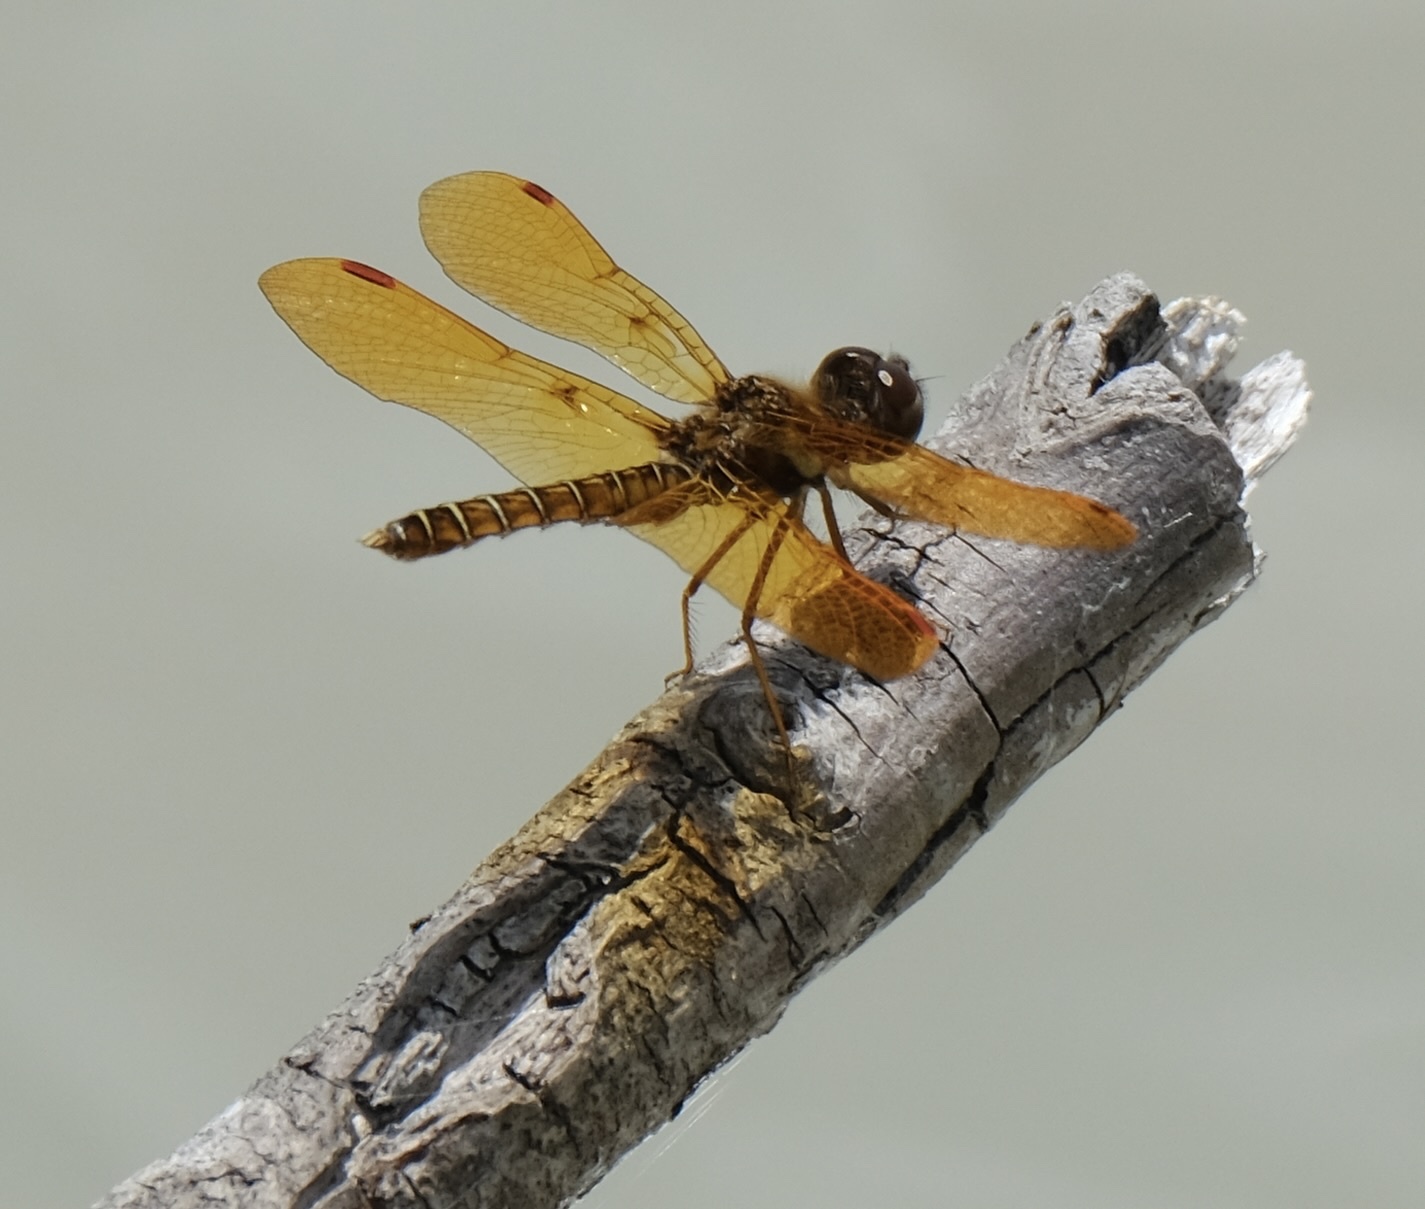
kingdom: Animalia
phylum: Arthropoda
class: Insecta
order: Odonata
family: Libellulidae
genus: Perithemis
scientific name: Perithemis tenera
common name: Eastern amberwing
